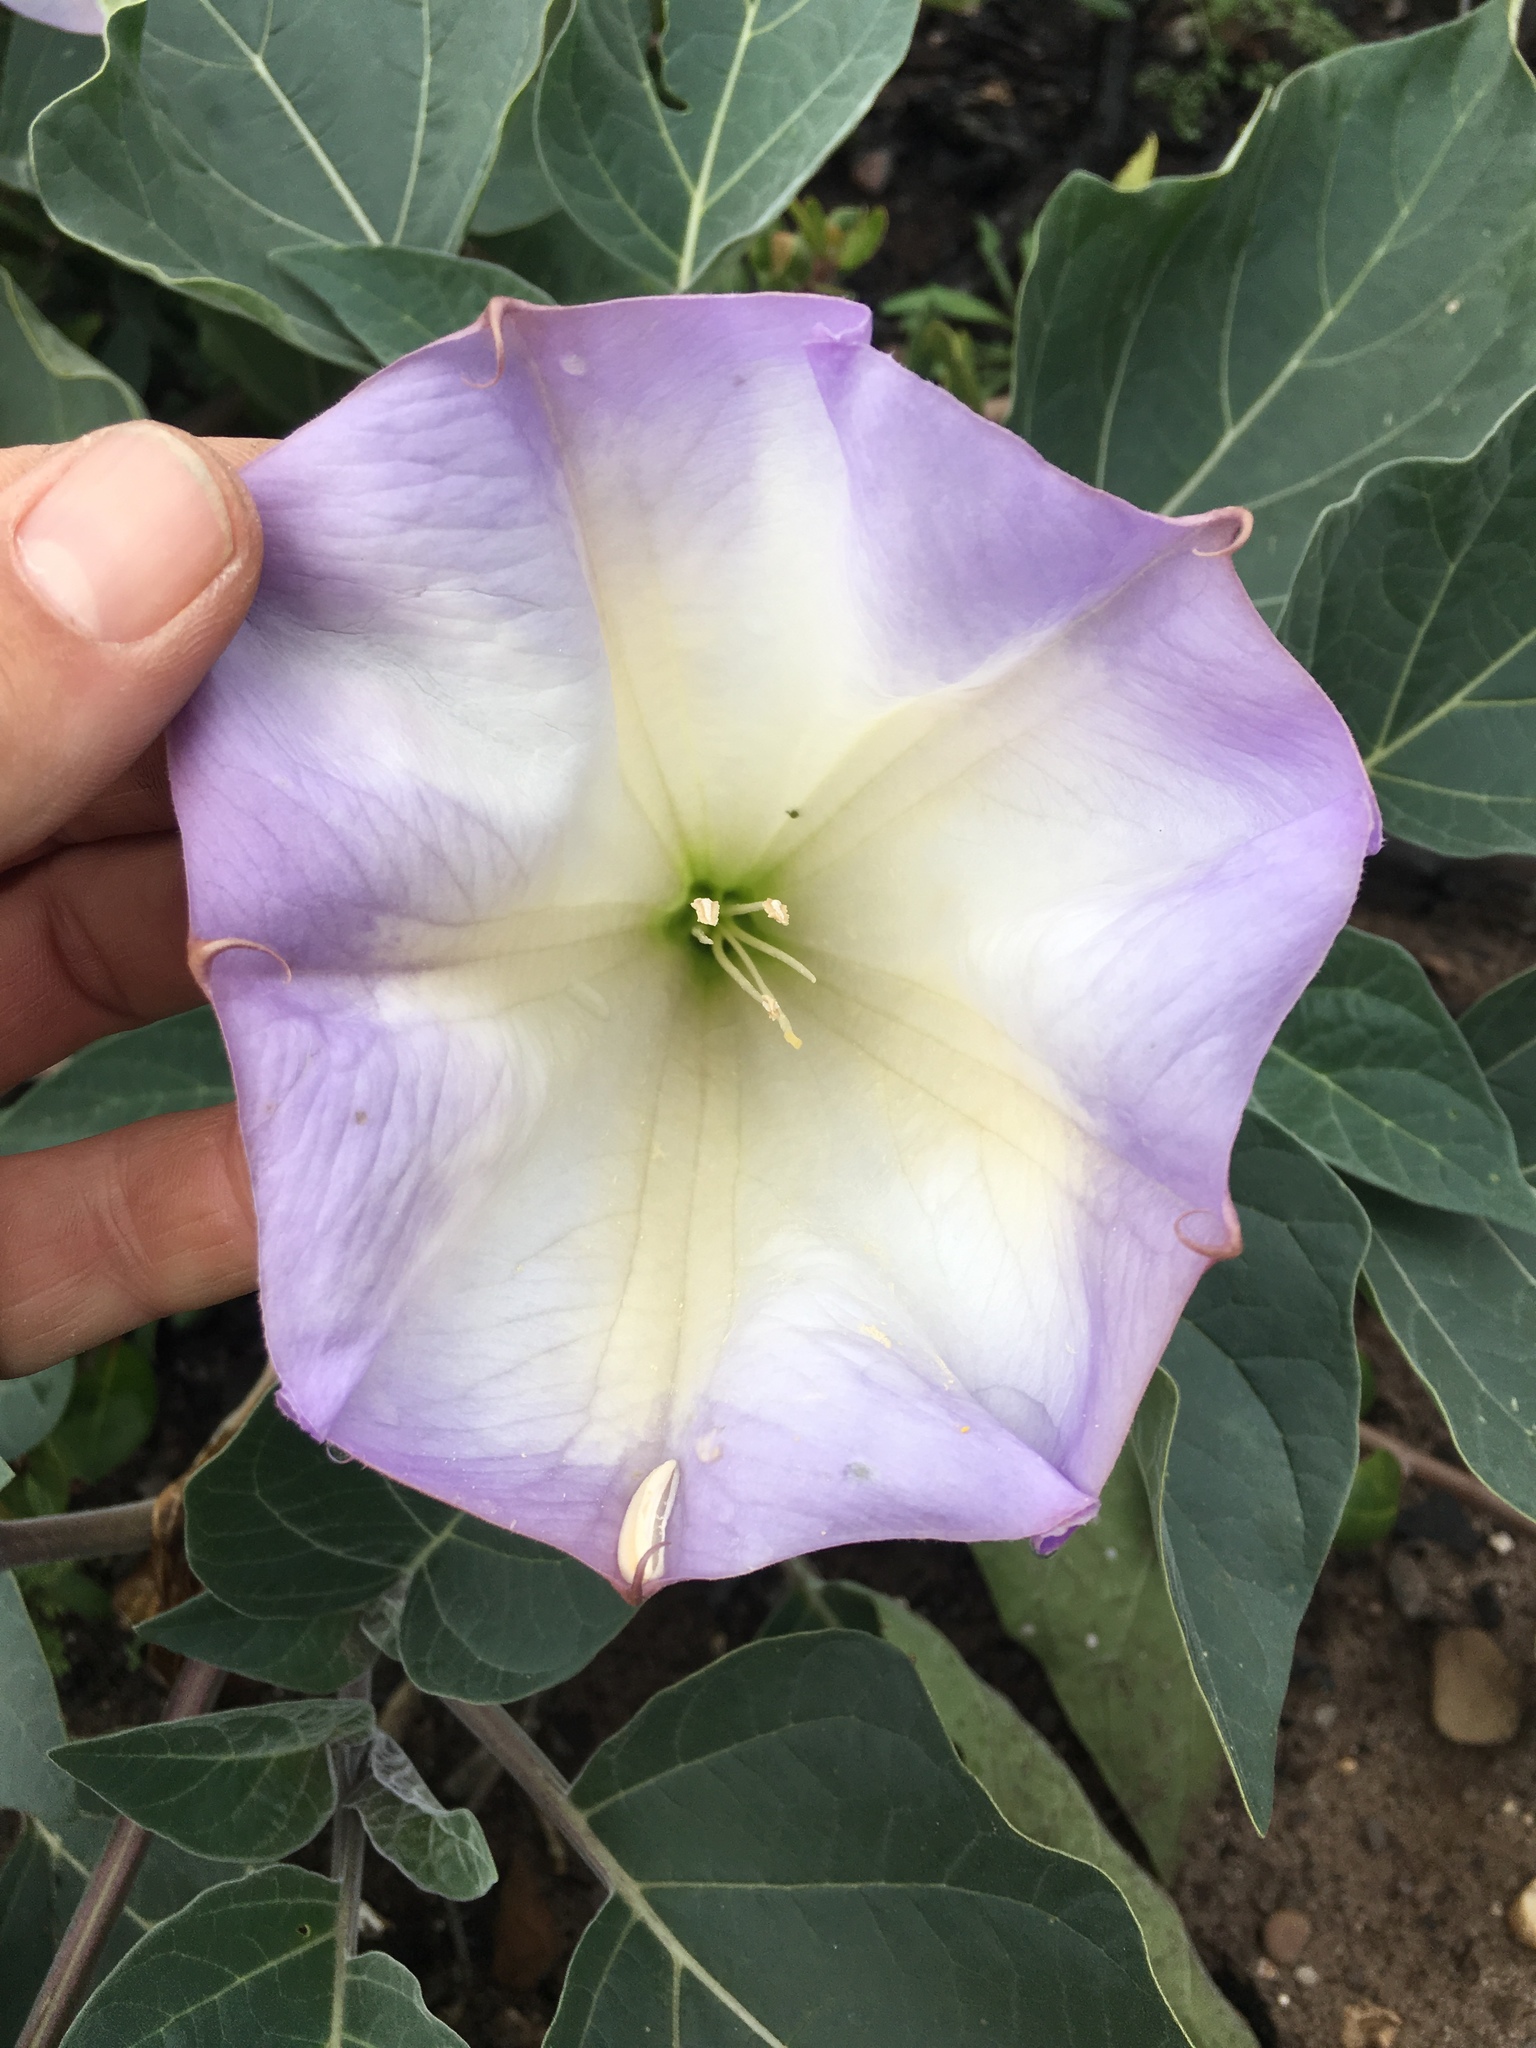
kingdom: Plantae
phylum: Tracheophyta
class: Magnoliopsida
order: Solanales
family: Solanaceae
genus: Datura
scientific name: Datura wrightii
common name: Sacred thorn-apple
